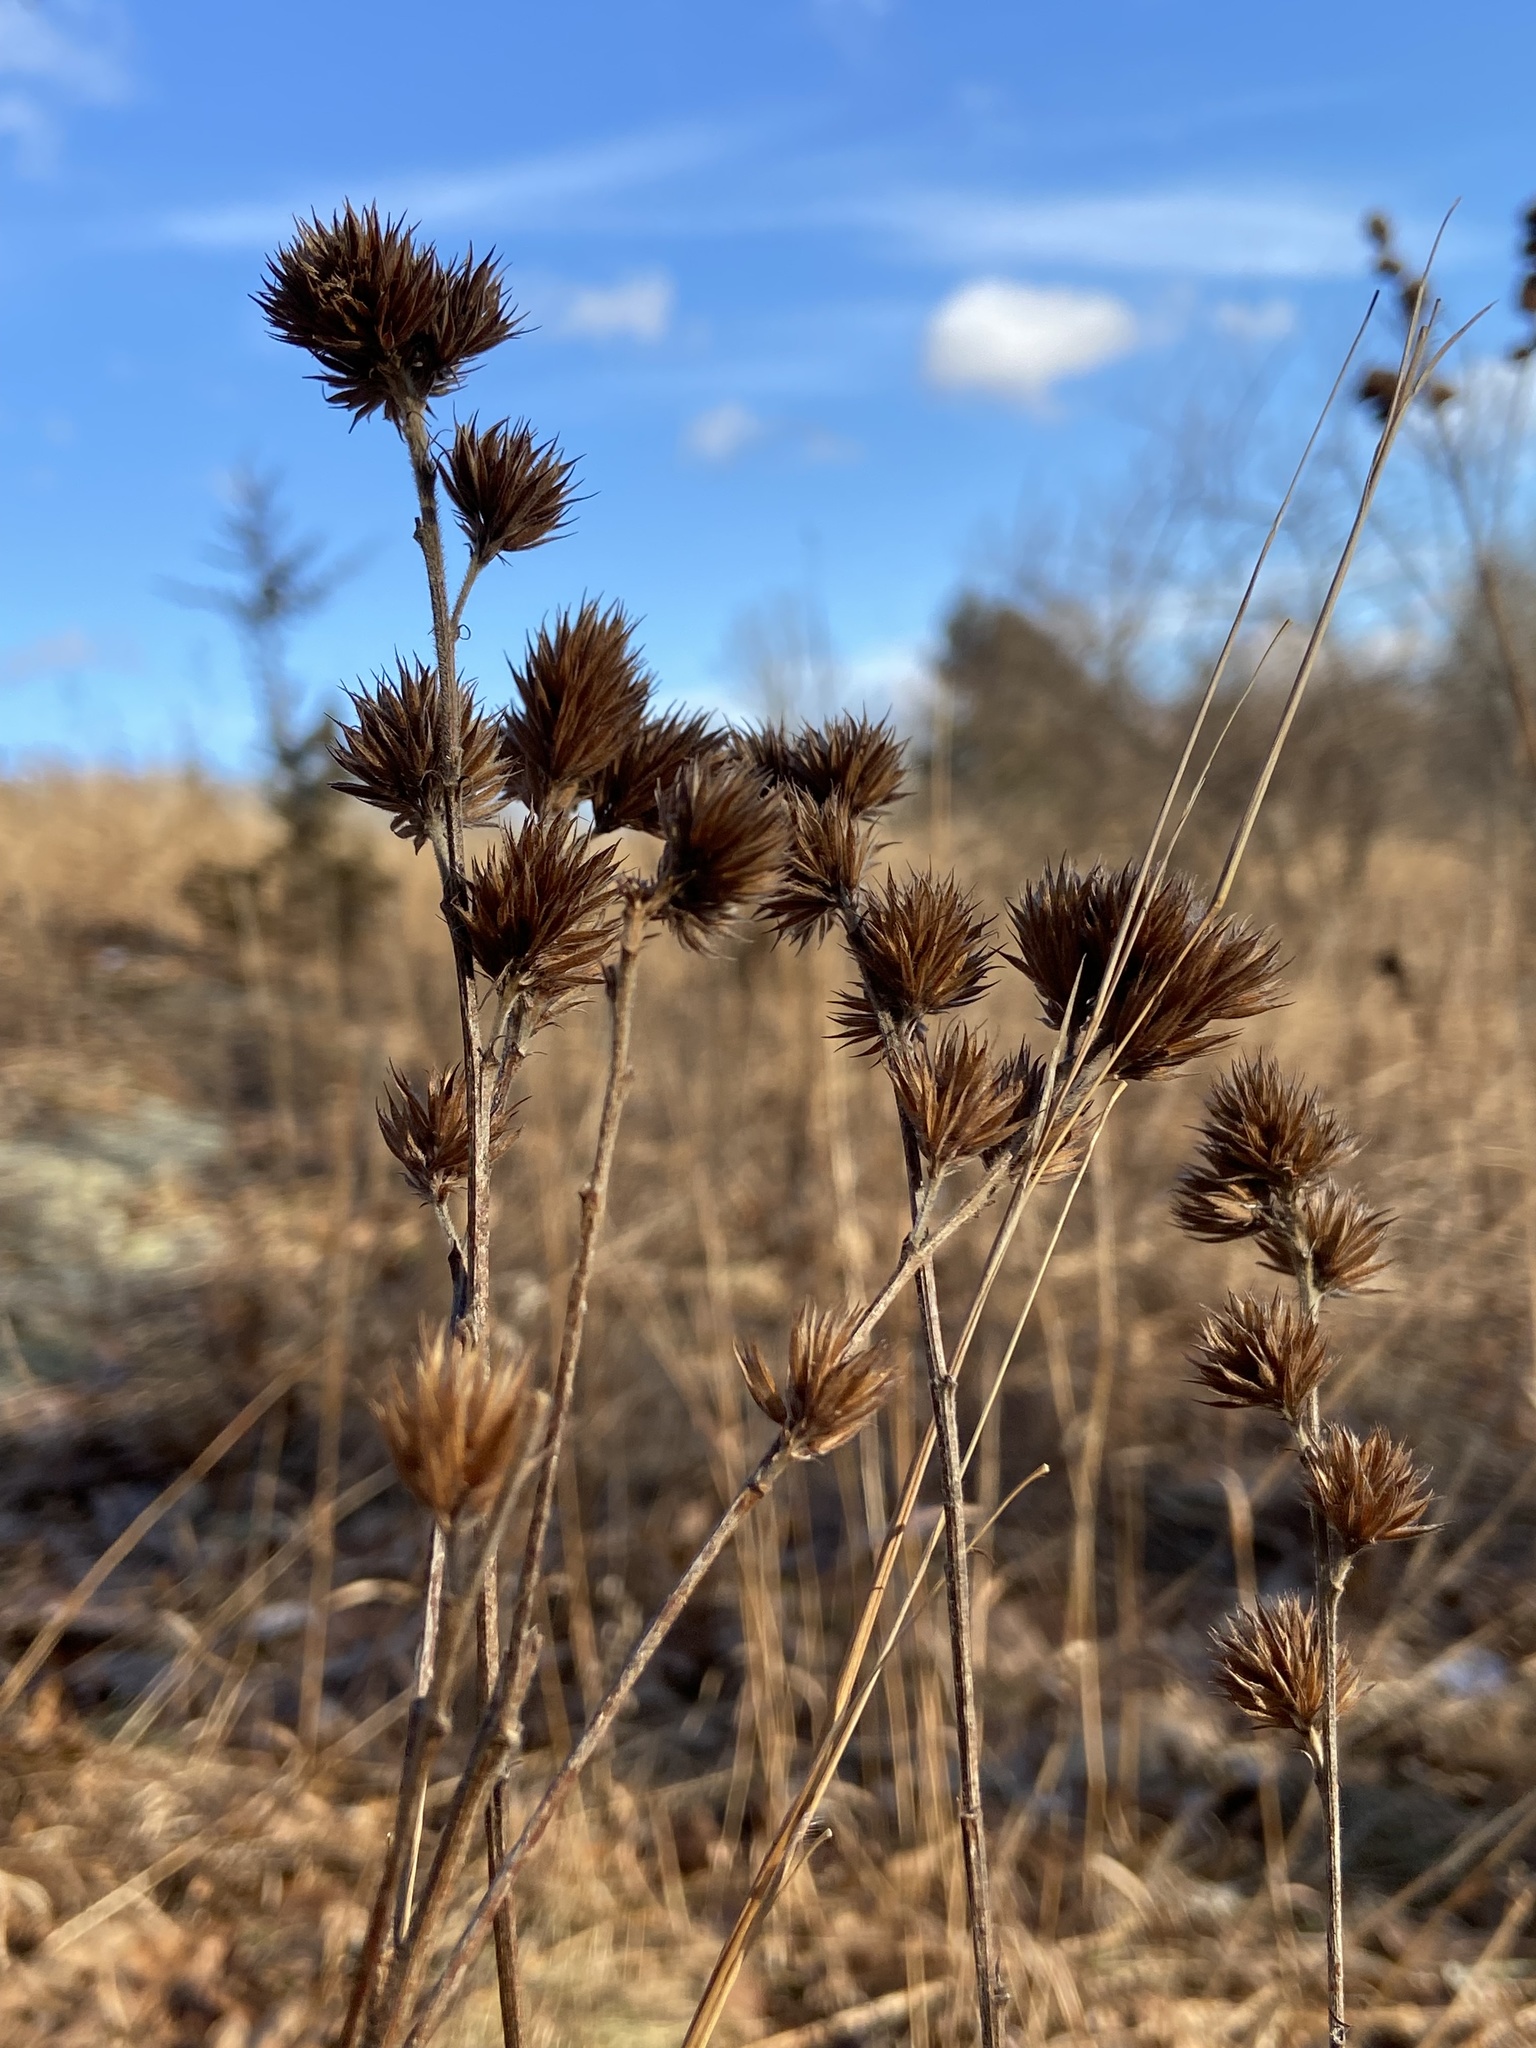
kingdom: Plantae
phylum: Tracheophyta
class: Magnoliopsida
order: Fabales
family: Fabaceae
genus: Lespedeza
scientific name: Lespedeza capitata
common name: Dusty clover
